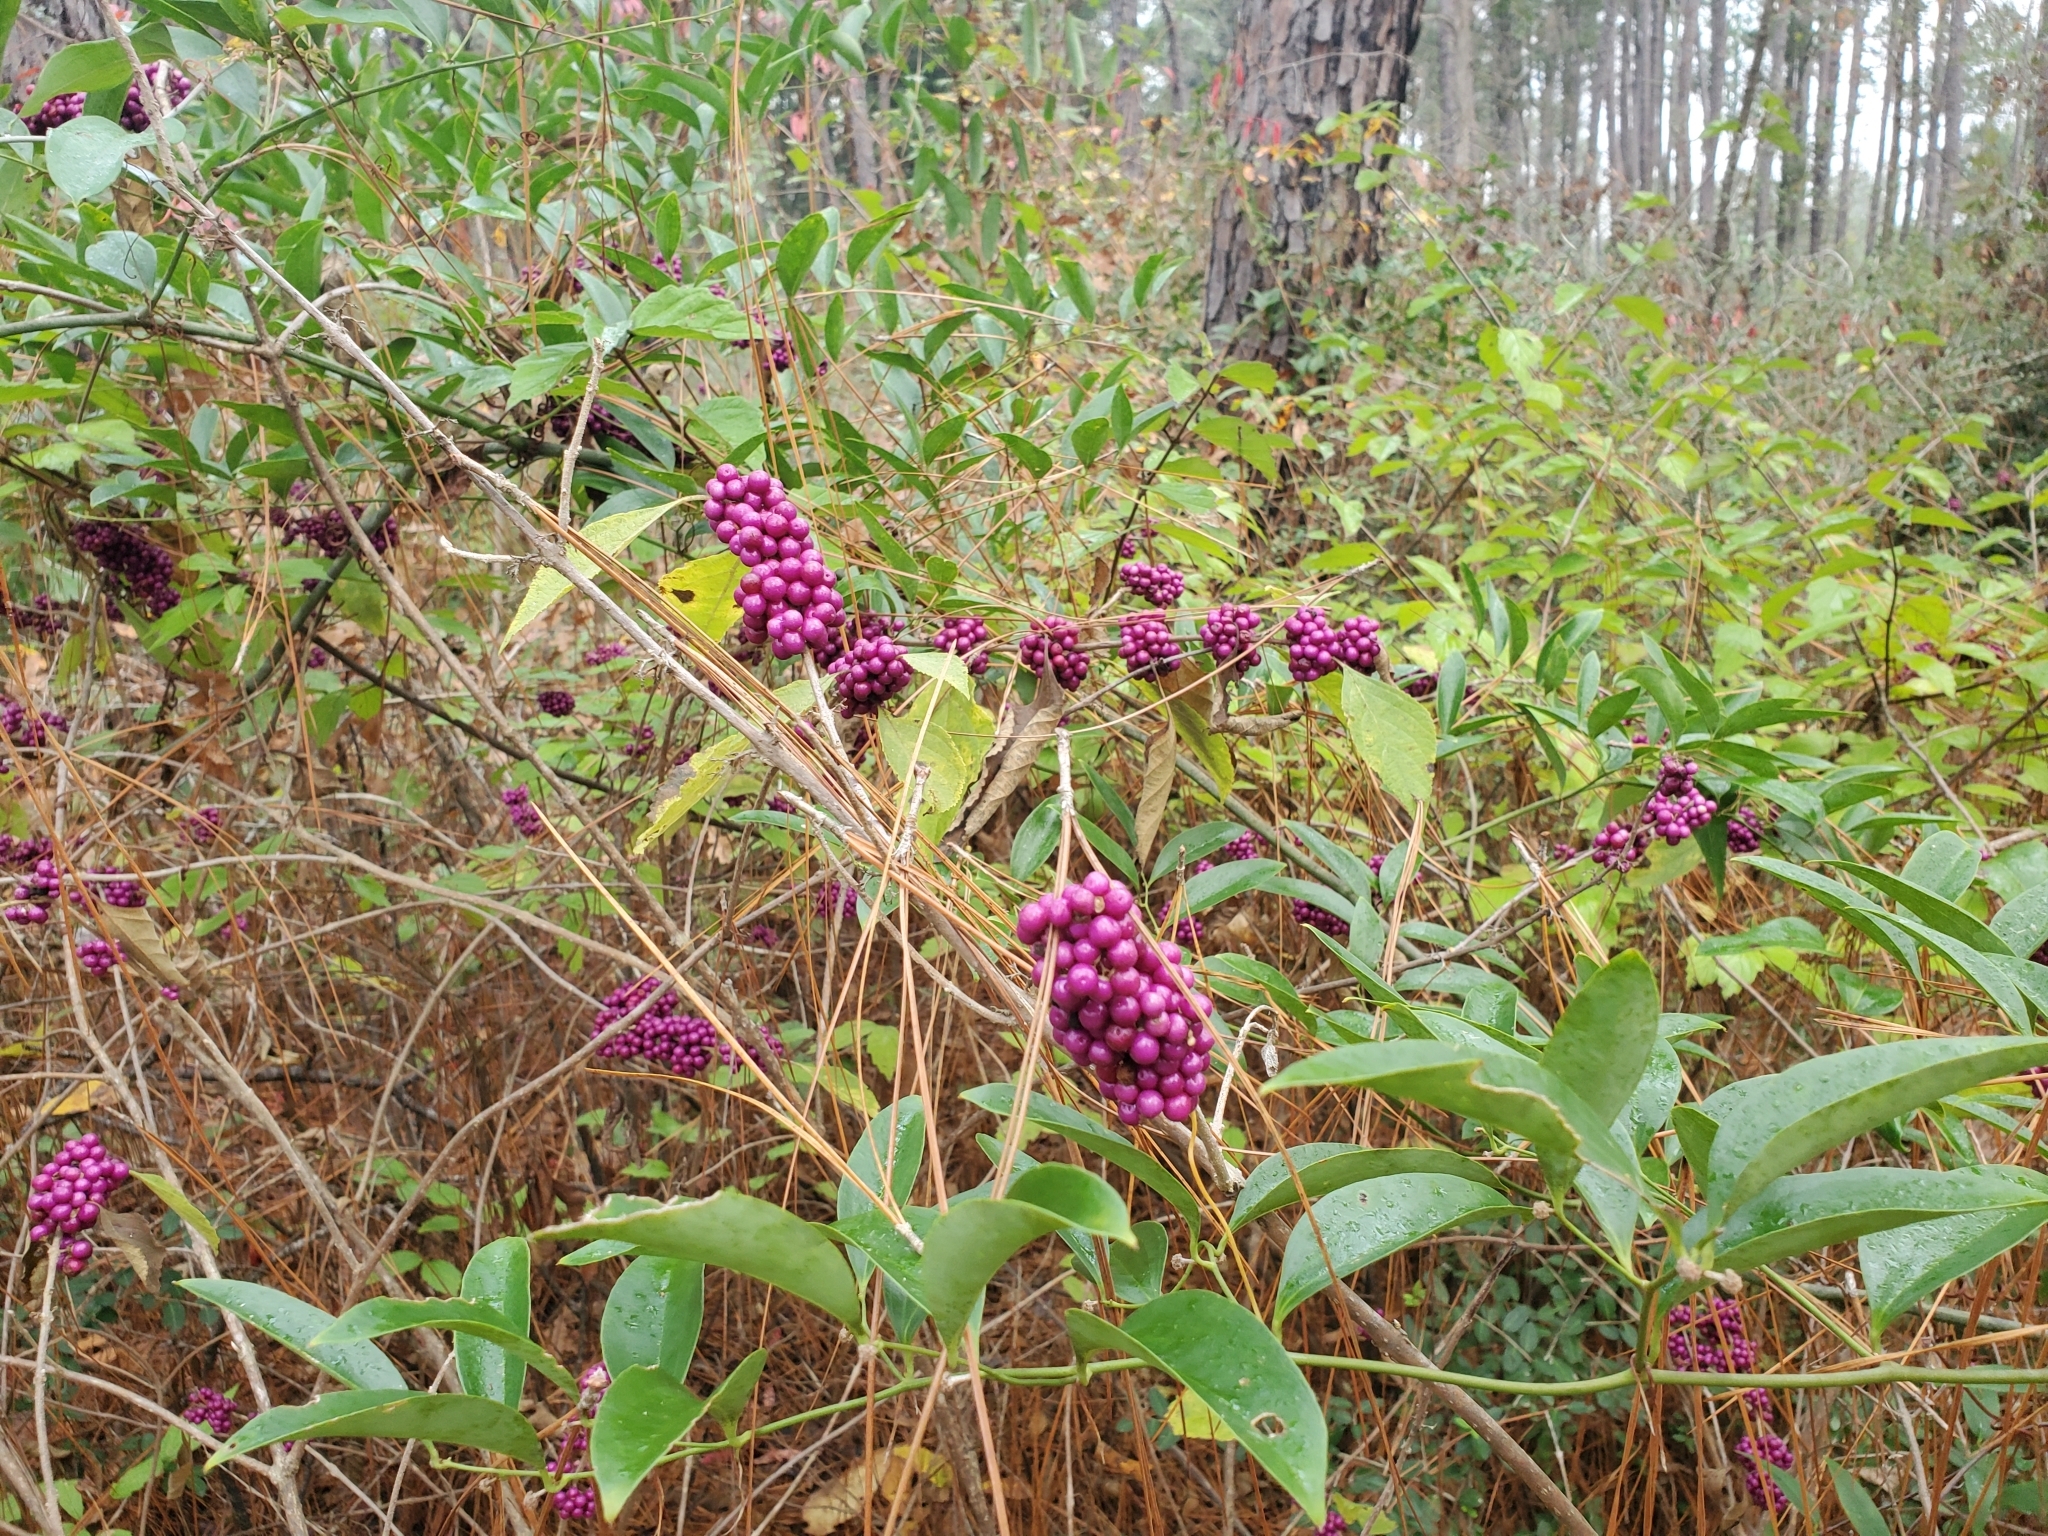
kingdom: Plantae
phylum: Tracheophyta
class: Magnoliopsida
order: Lamiales
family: Lamiaceae
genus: Callicarpa
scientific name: Callicarpa americana
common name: American beautyberry
